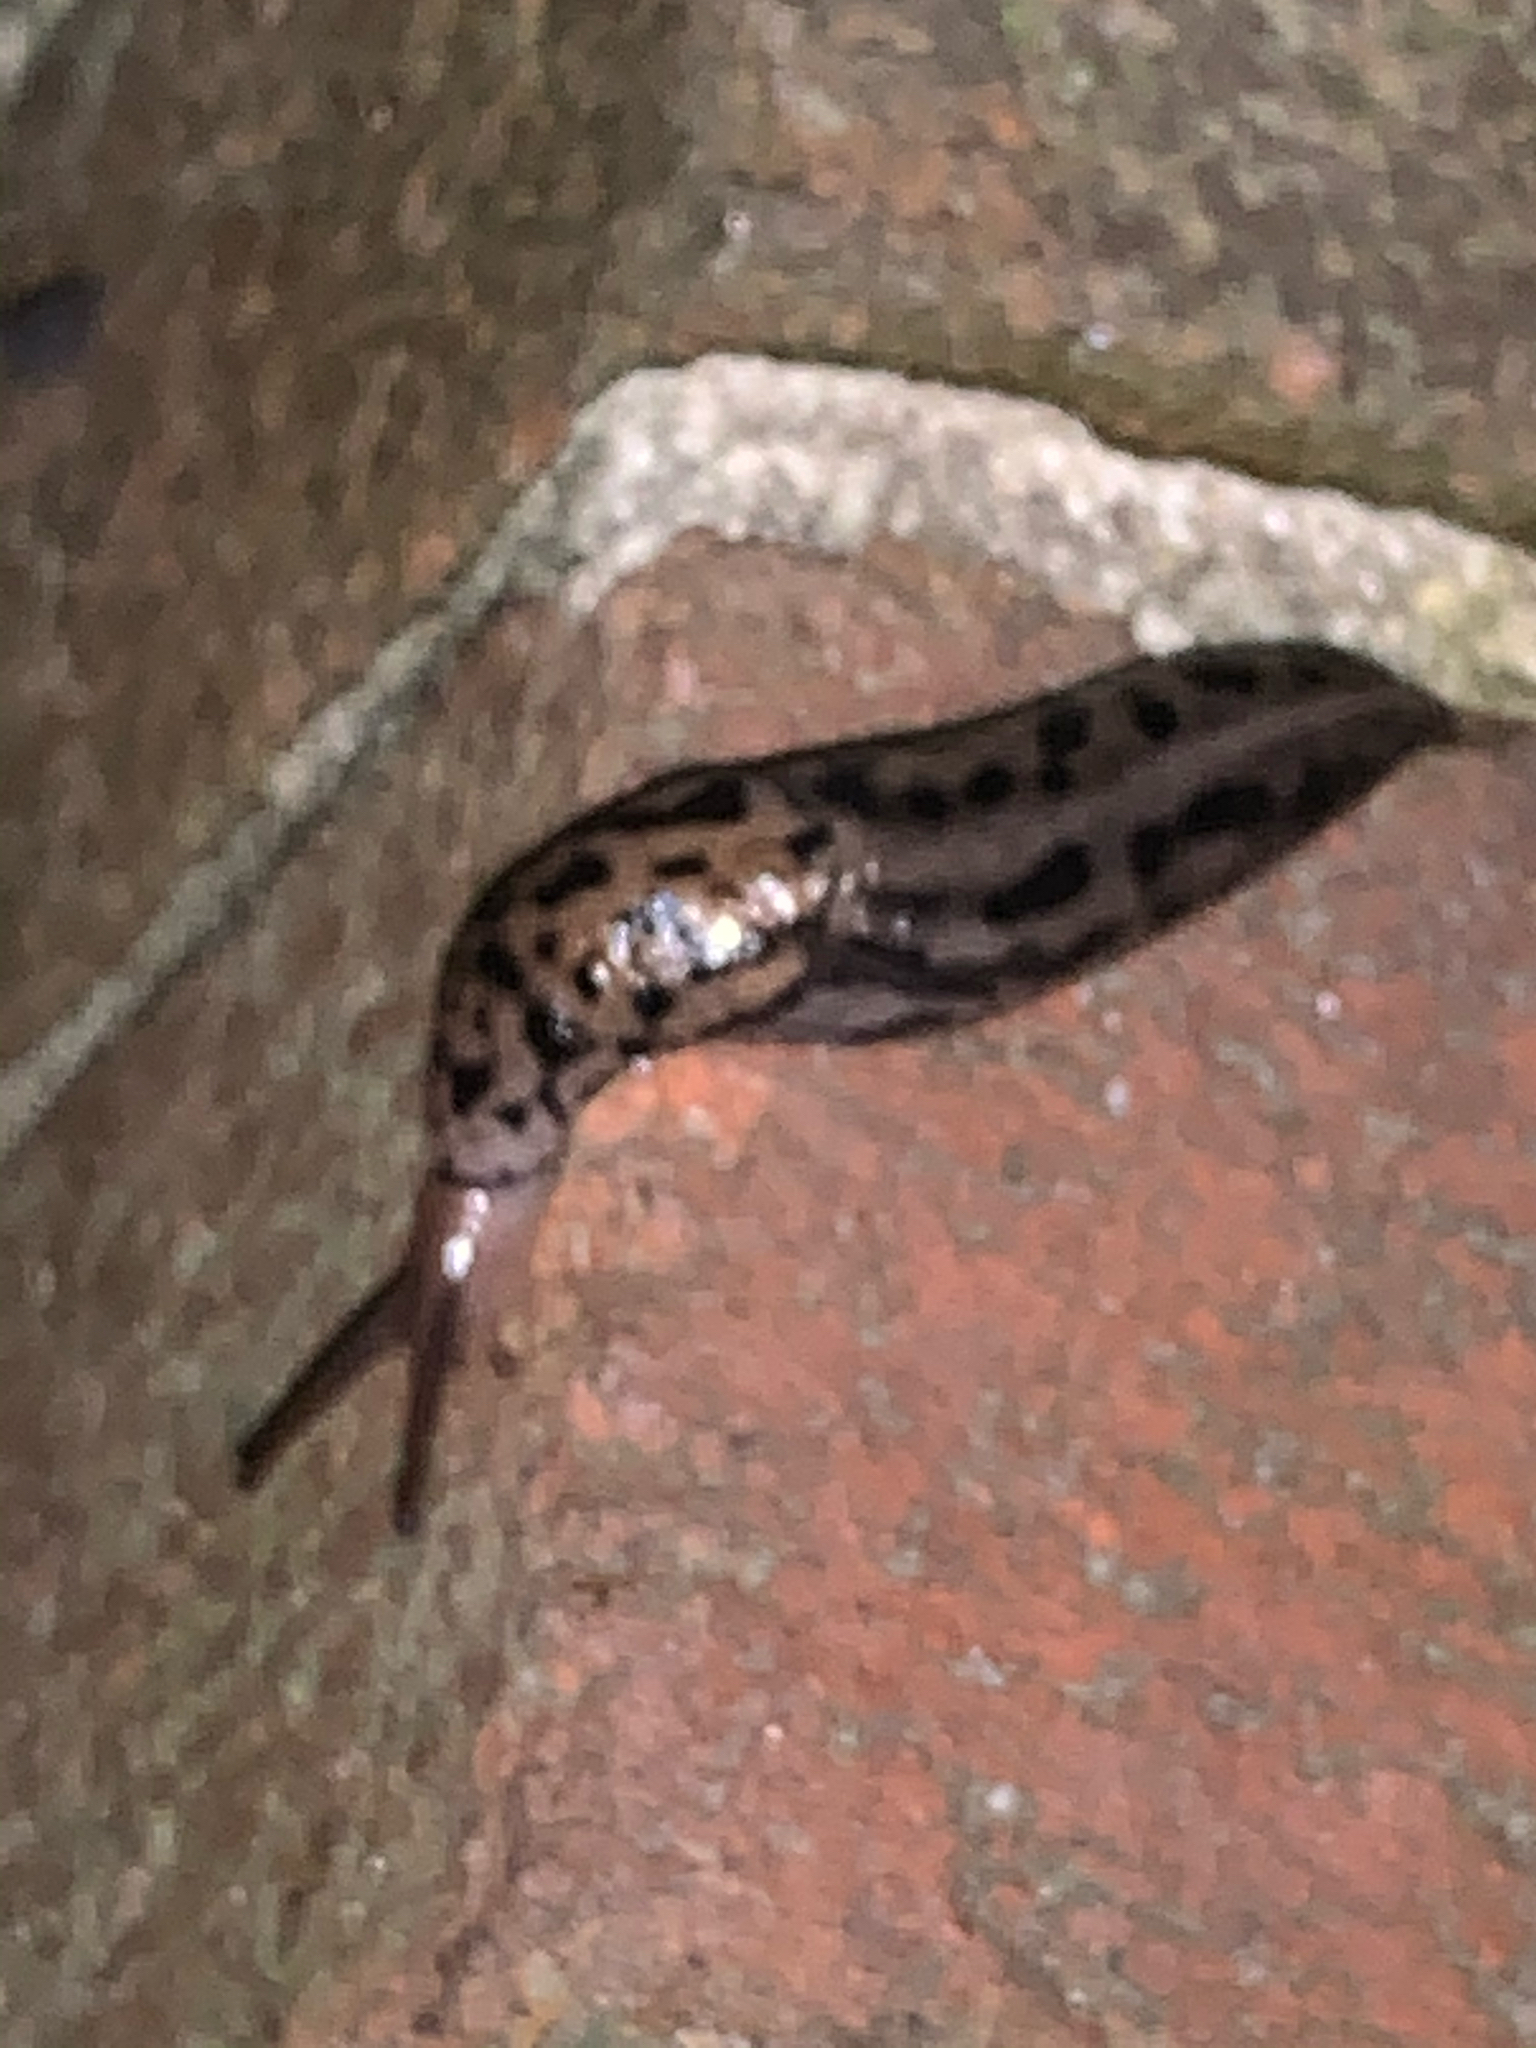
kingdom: Animalia
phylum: Mollusca
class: Gastropoda
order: Stylommatophora
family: Limacidae
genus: Limax
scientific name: Limax maximus
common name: Great grey slug
